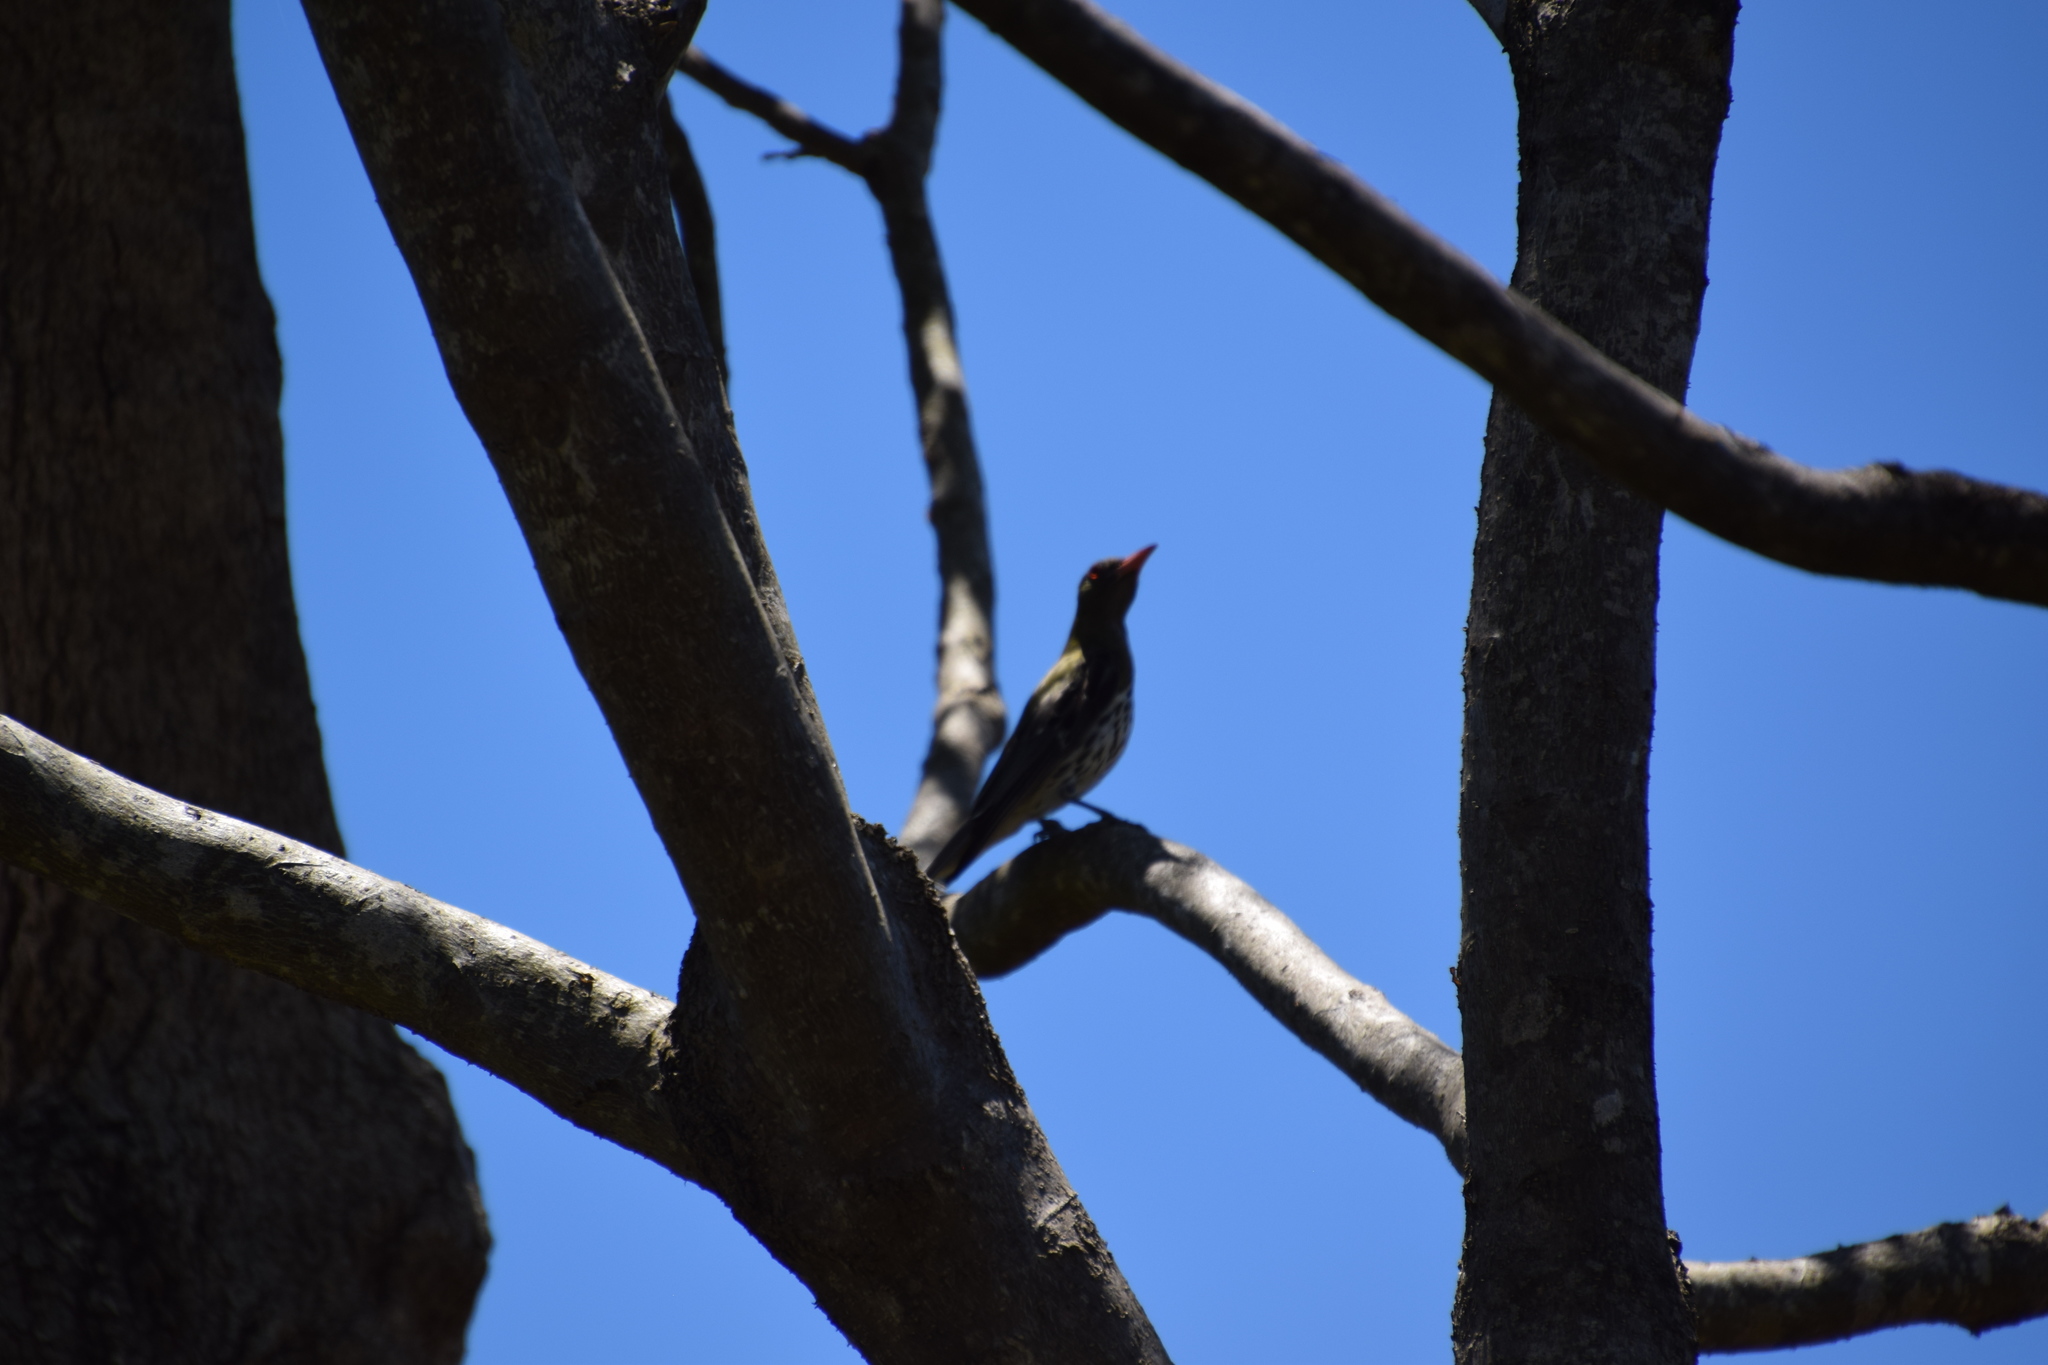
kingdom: Animalia
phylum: Chordata
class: Aves
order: Passeriformes
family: Oriolidae
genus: Oriolus
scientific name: Oriolus sagittatus
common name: Olive-backed oriole
